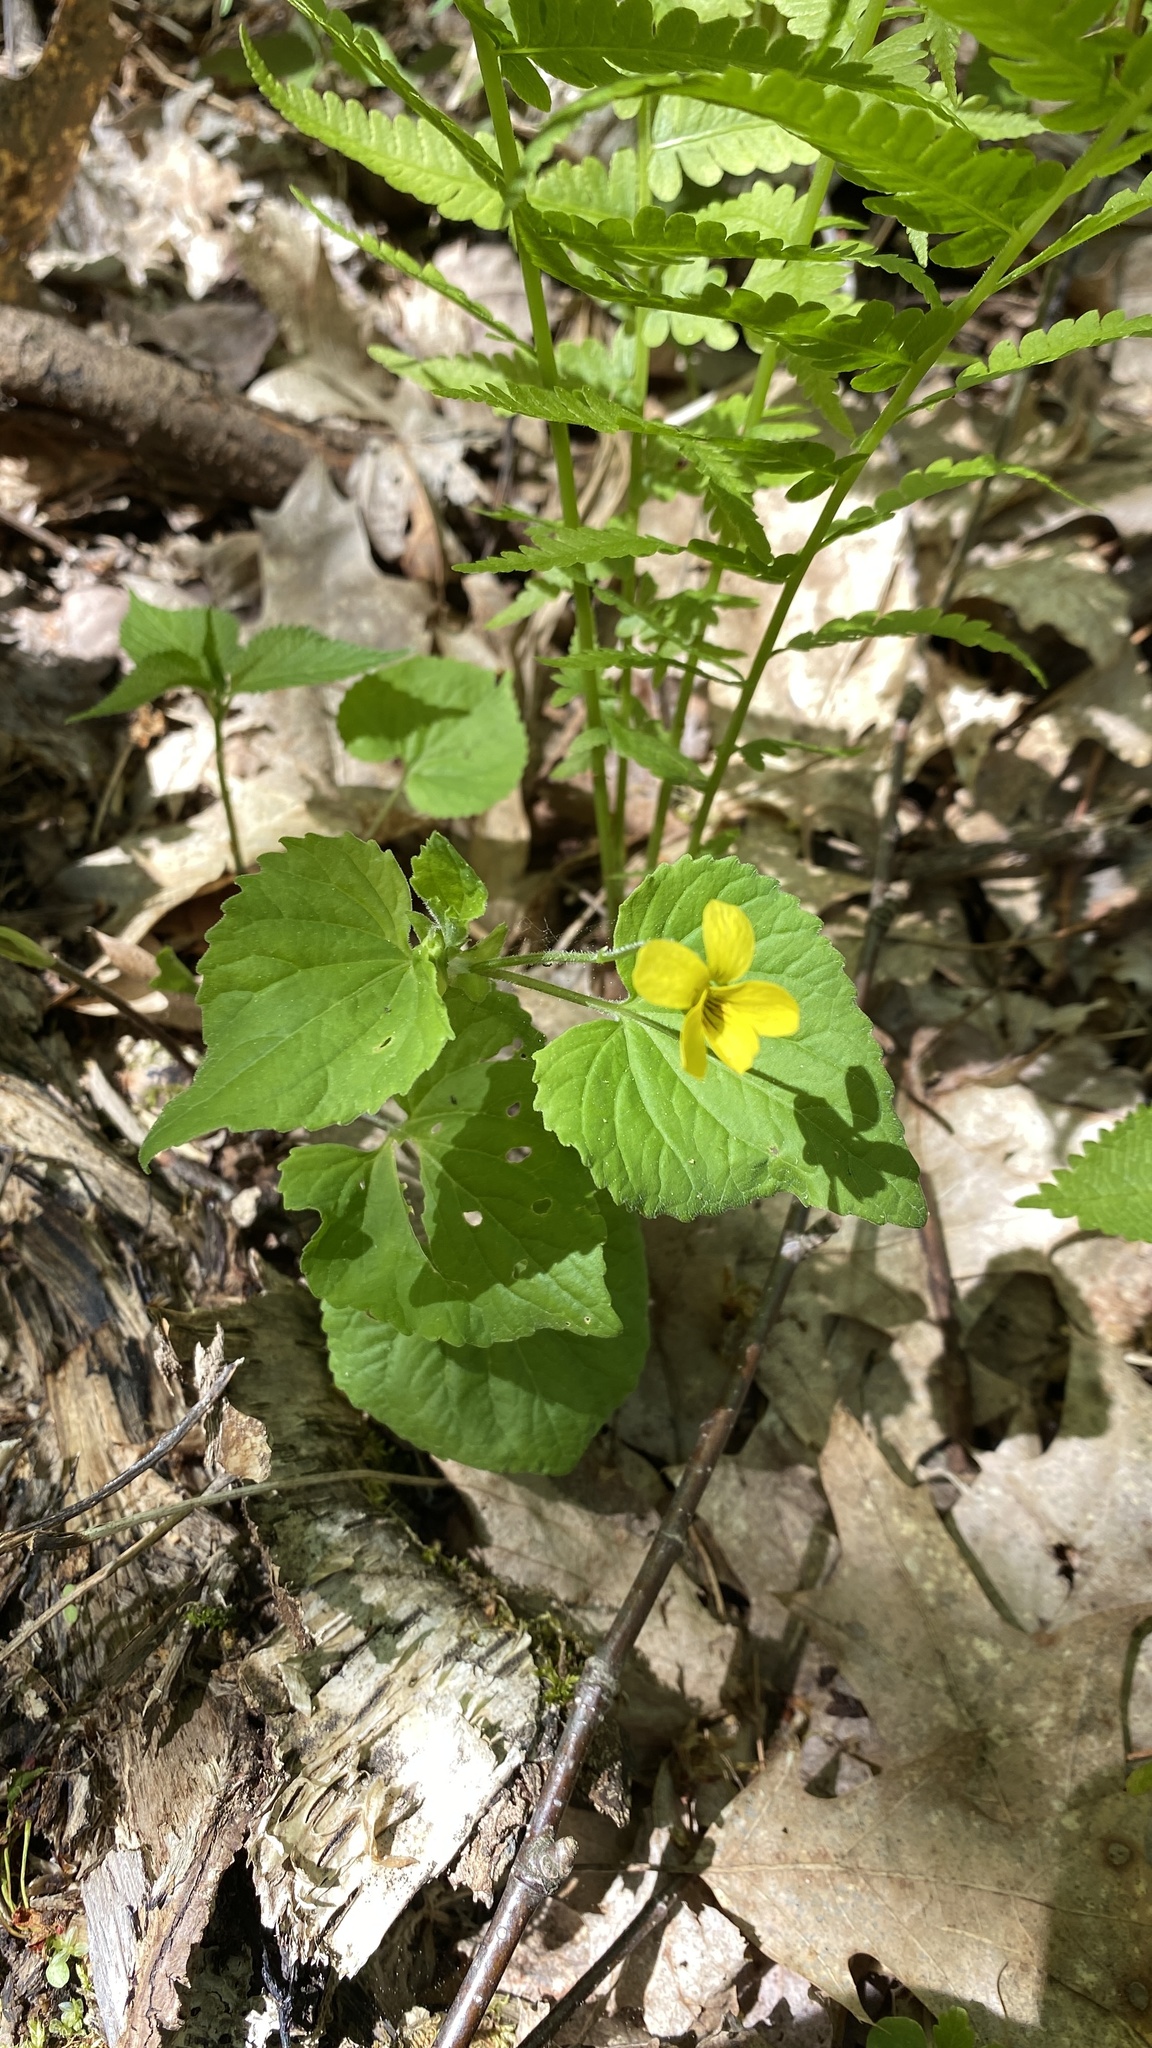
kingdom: Plantae
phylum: Tracheophyta
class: Magnoliopsida
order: Malpighiales
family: Violaceae
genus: Viola
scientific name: Viola eriocarpa
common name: Smooth yellow violet
